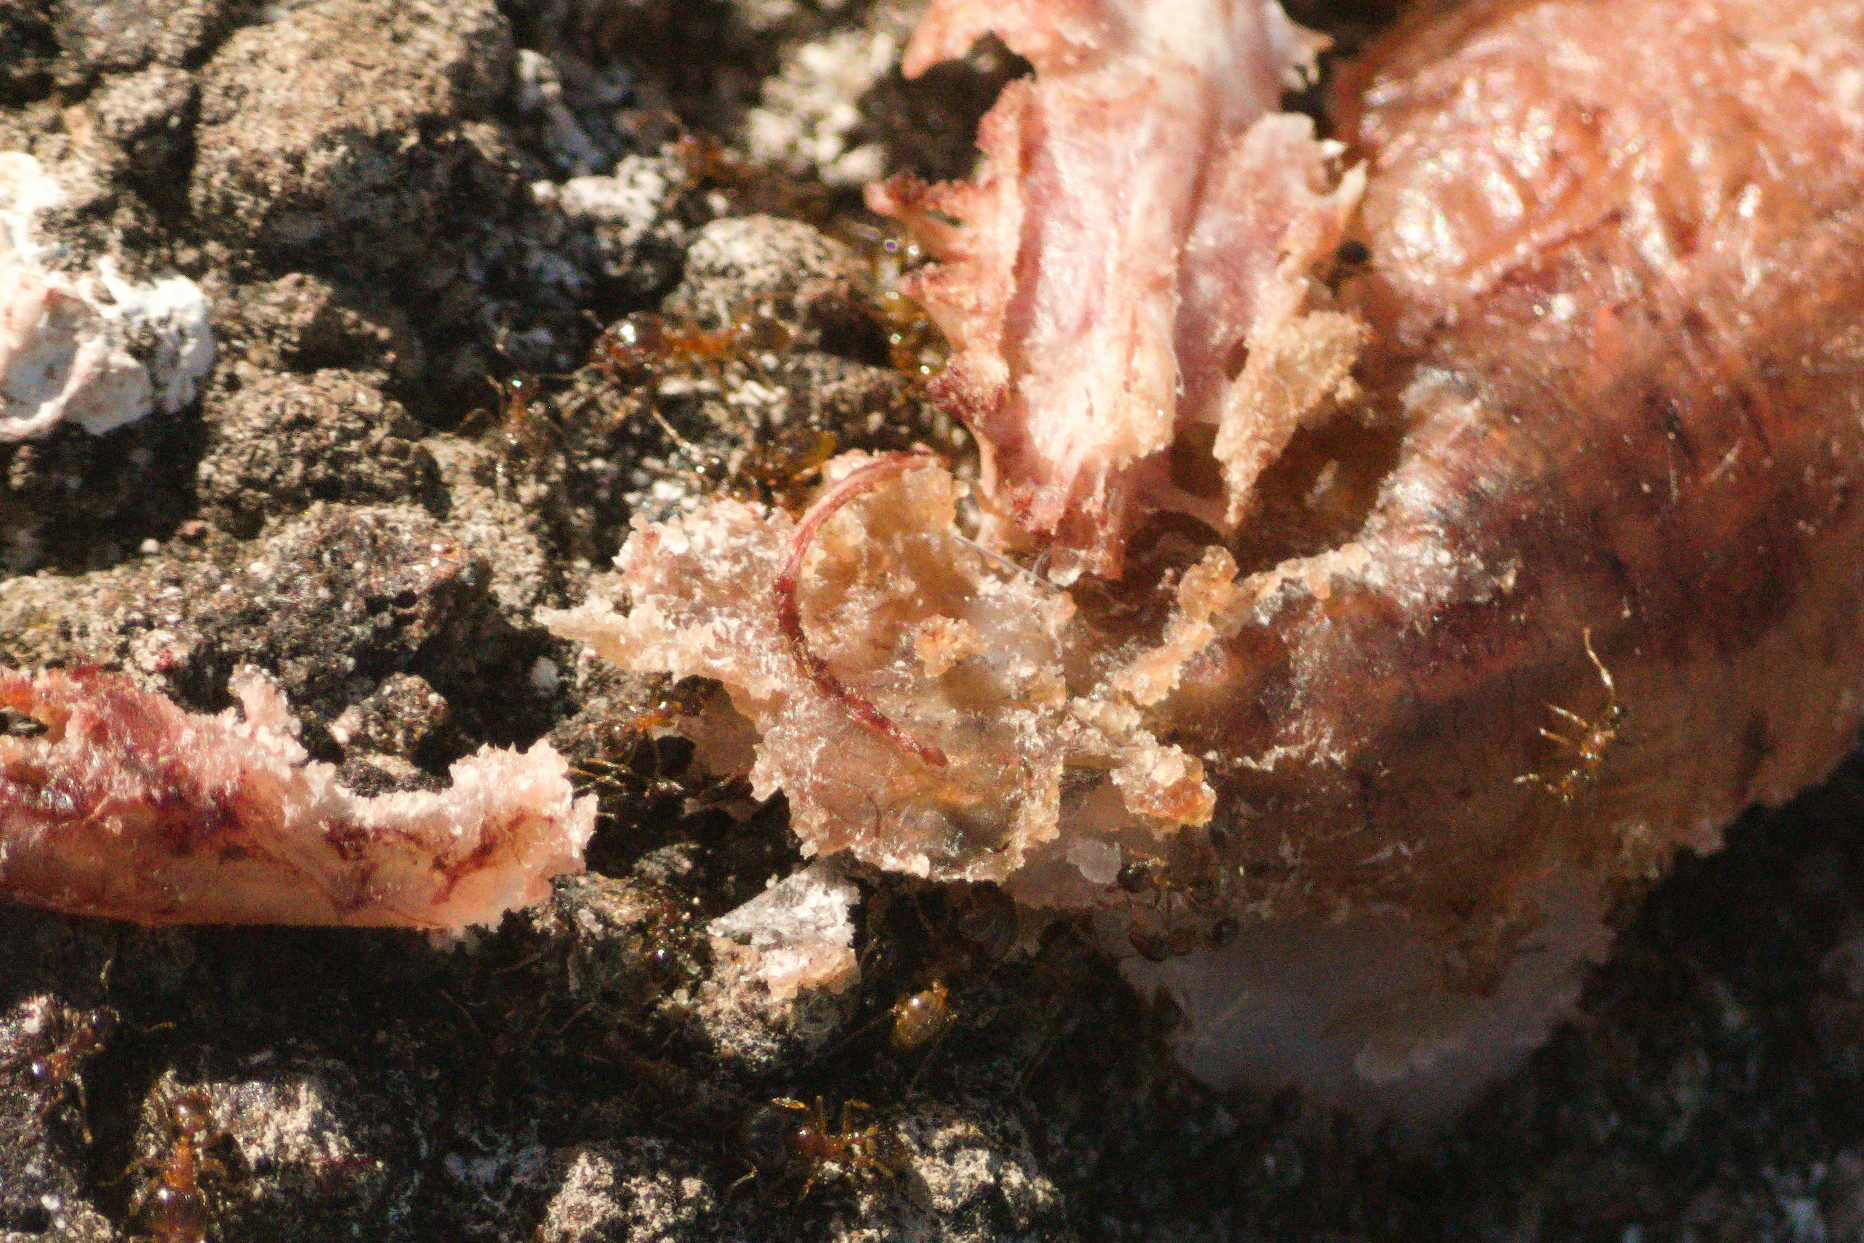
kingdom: Animalia
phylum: Arthropoda
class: Insecta
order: Hymenoptera
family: Formicidae
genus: Pheidole
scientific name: Pheidole megacephala
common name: Bigheaded ant
